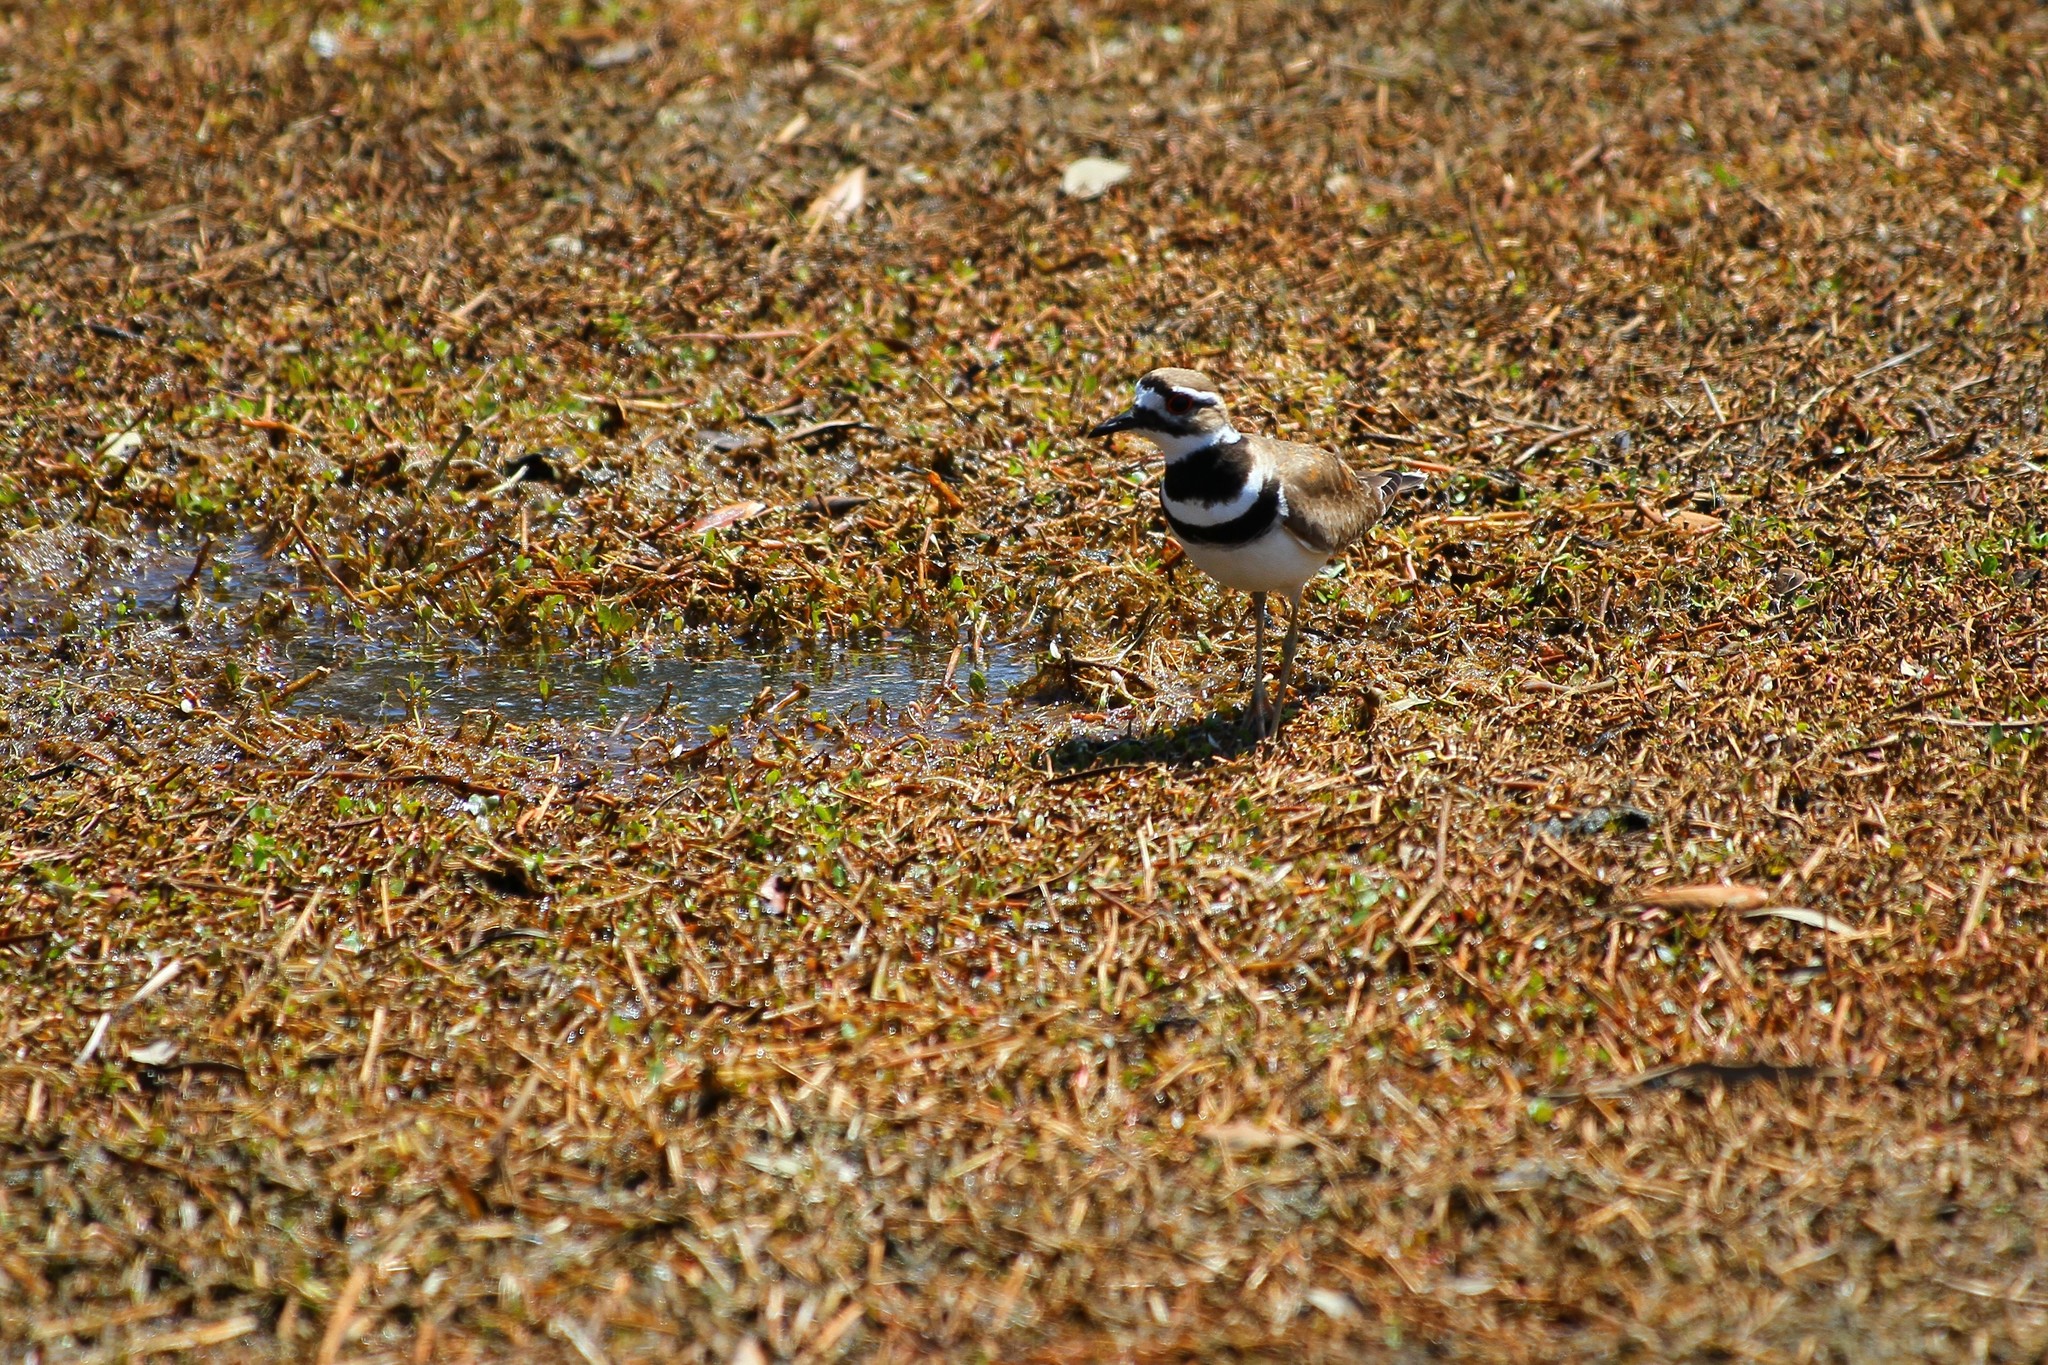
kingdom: Animalia
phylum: Chordata
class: Aves
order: Charadriiformes
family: Charadriidae
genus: Charadrius
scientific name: Charadrius vociferus
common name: Killdeer
